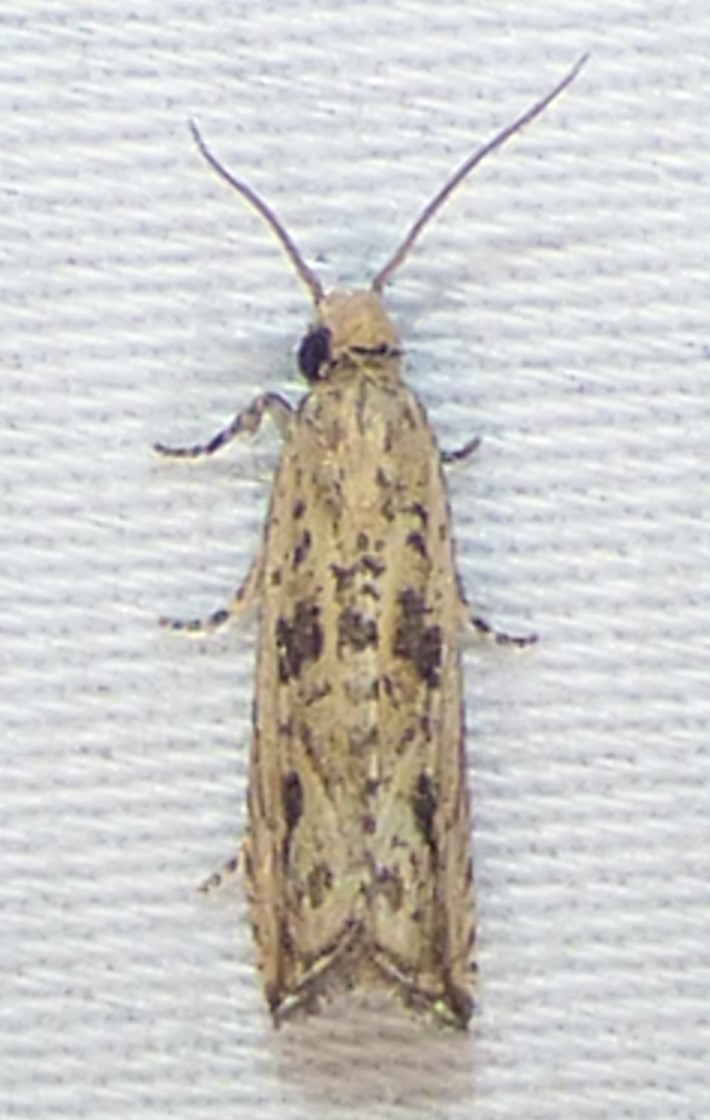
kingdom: Animalia
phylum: Arthropoda
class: Insecta
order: Lepidoptera
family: Tortricidae
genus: Bactra
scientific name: Bactra verutana
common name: Javelin moth
